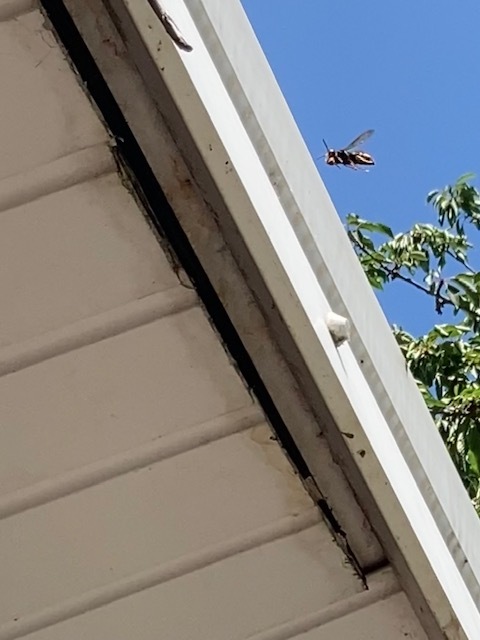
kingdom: Animalia
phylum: Arthropoda
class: Insecta
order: Hymenoptera
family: Vespidae
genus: Vespa
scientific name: Vespa velutina
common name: Asian hornet
